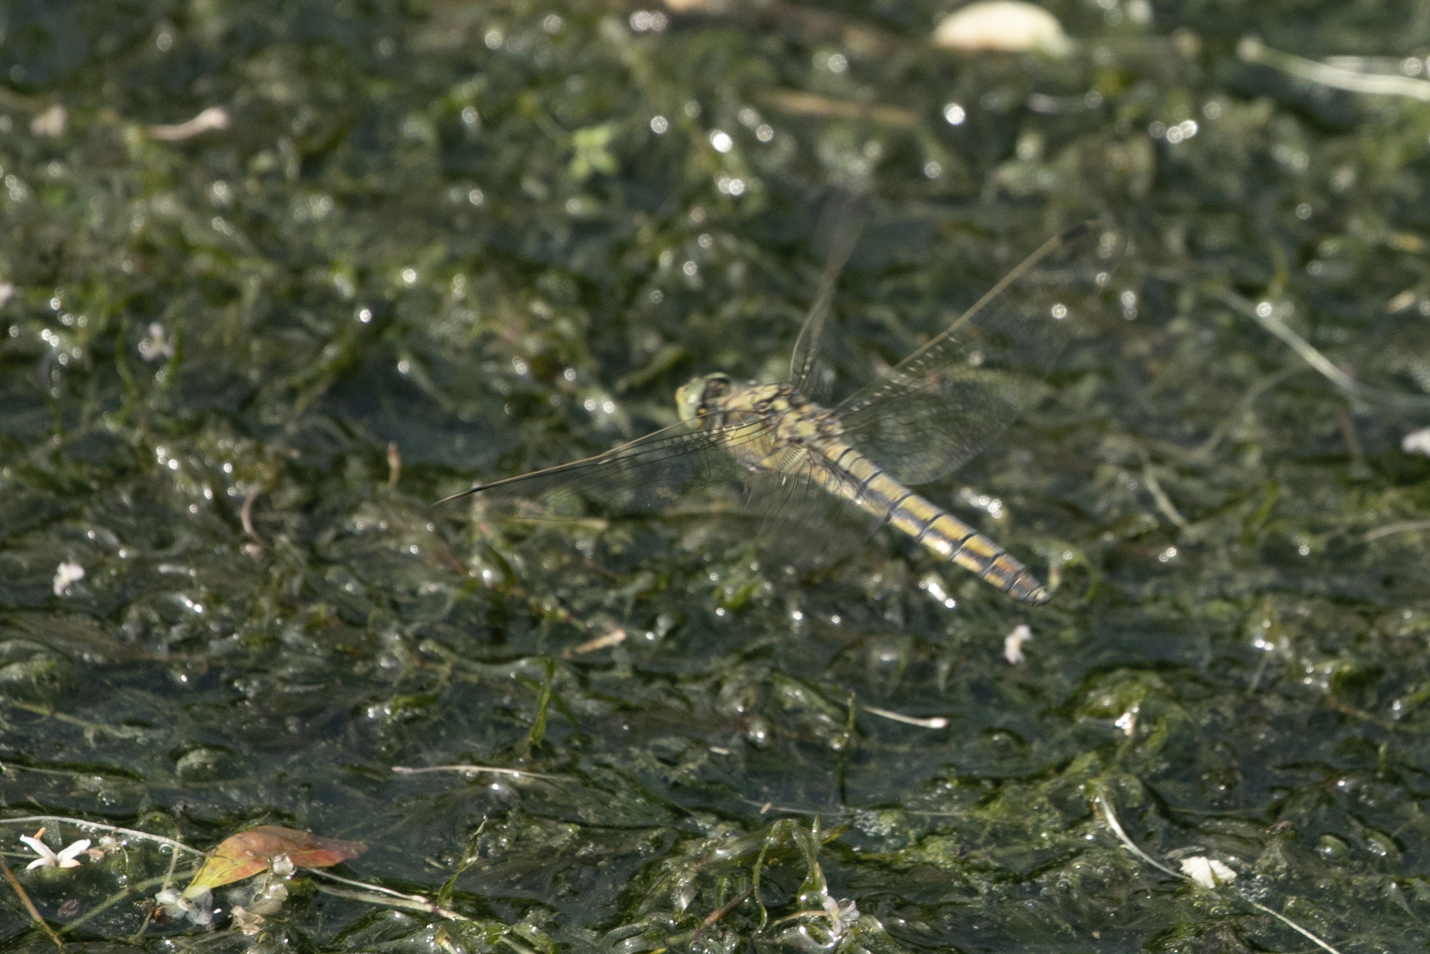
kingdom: Animalia
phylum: Arthropoda
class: Insecta
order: Odonata
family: Libellulidae
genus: Orthetrum
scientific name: Orthetrum cancellatum
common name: Black-tailed skimmer
